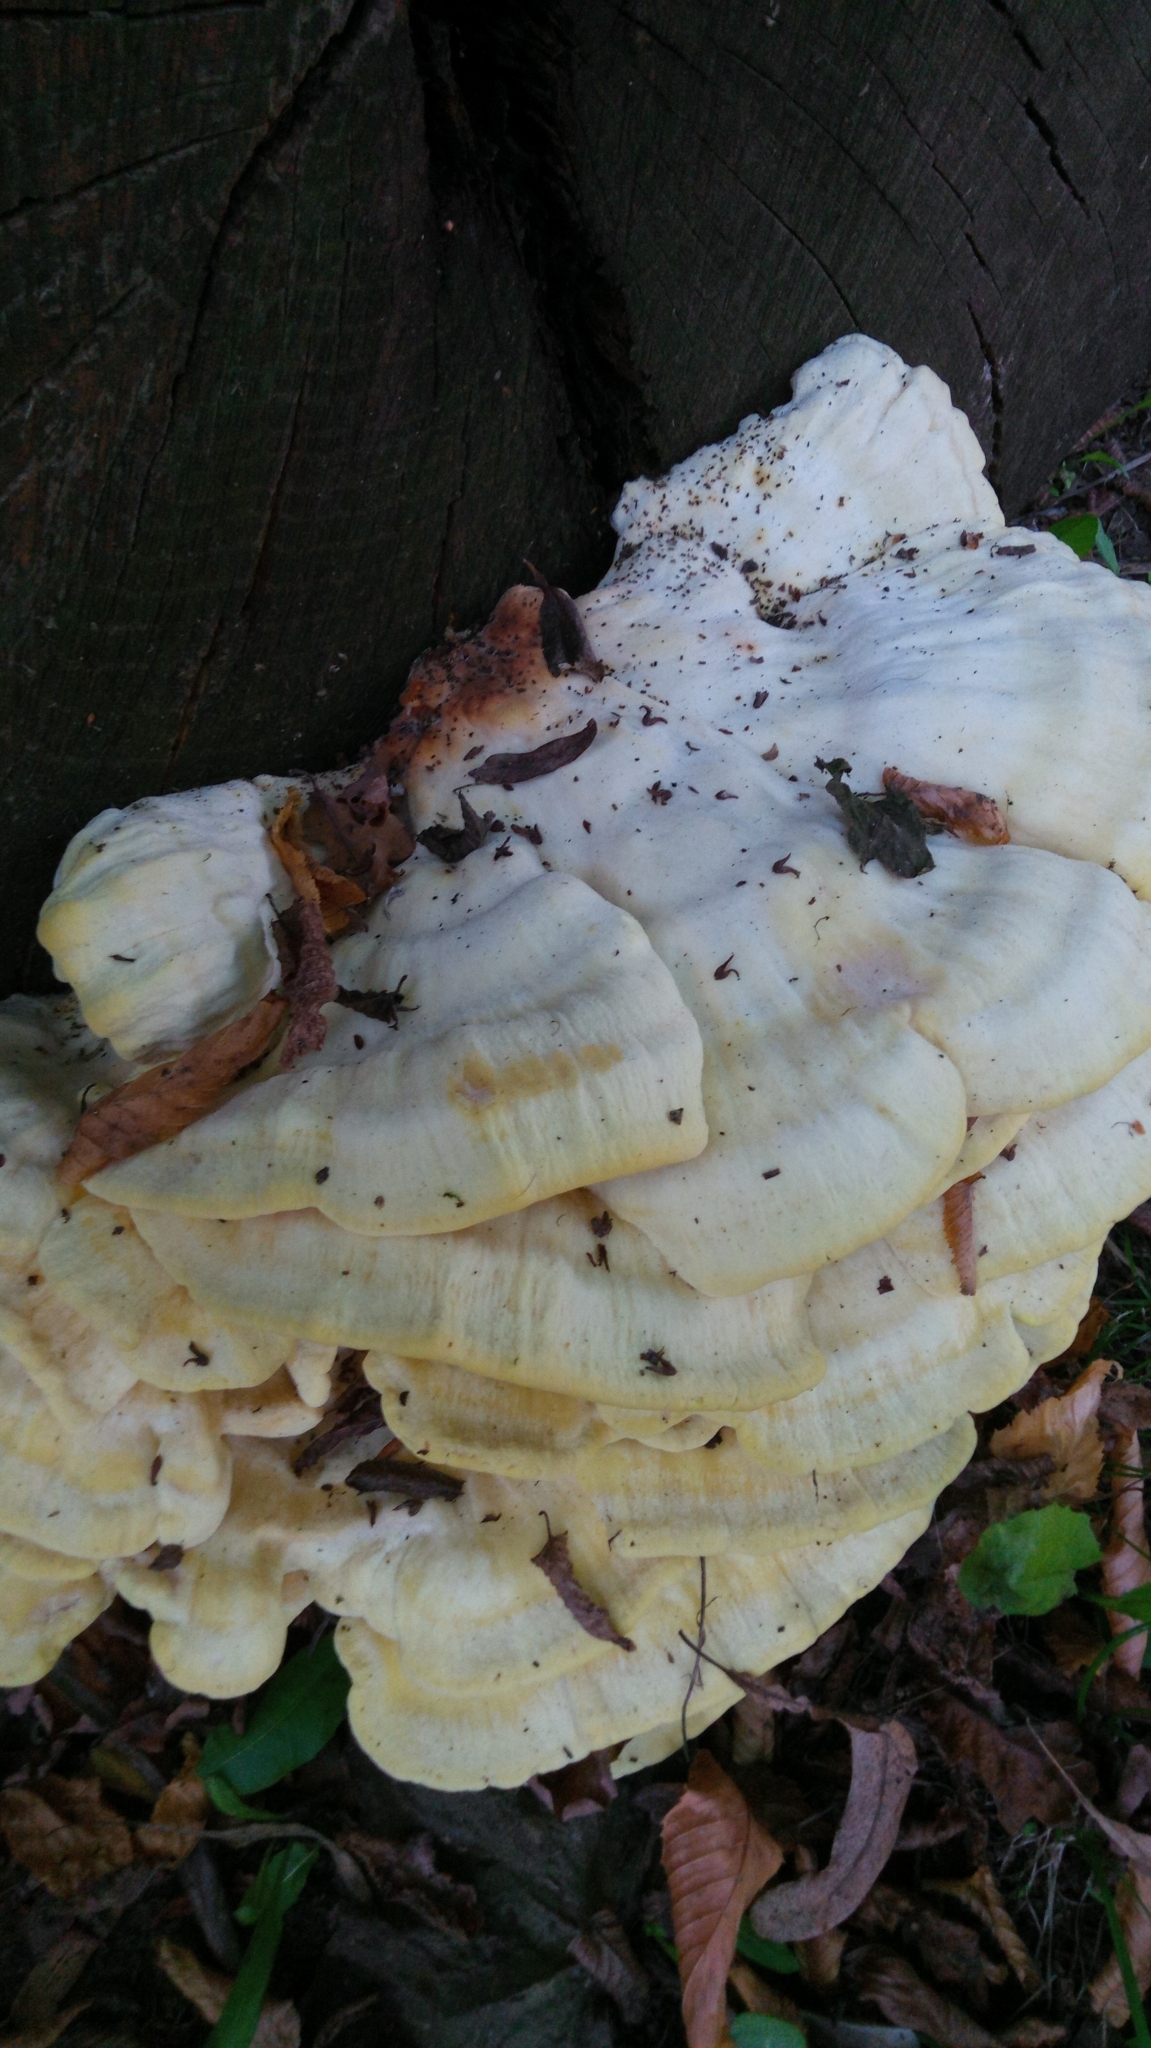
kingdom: Fungi
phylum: Basidiomycota
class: Agaricomycetes
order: Polyporales
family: Laetiporaceae
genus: Laetiporus
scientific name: Laetiporus sulphureus
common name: Chicken of the woods
